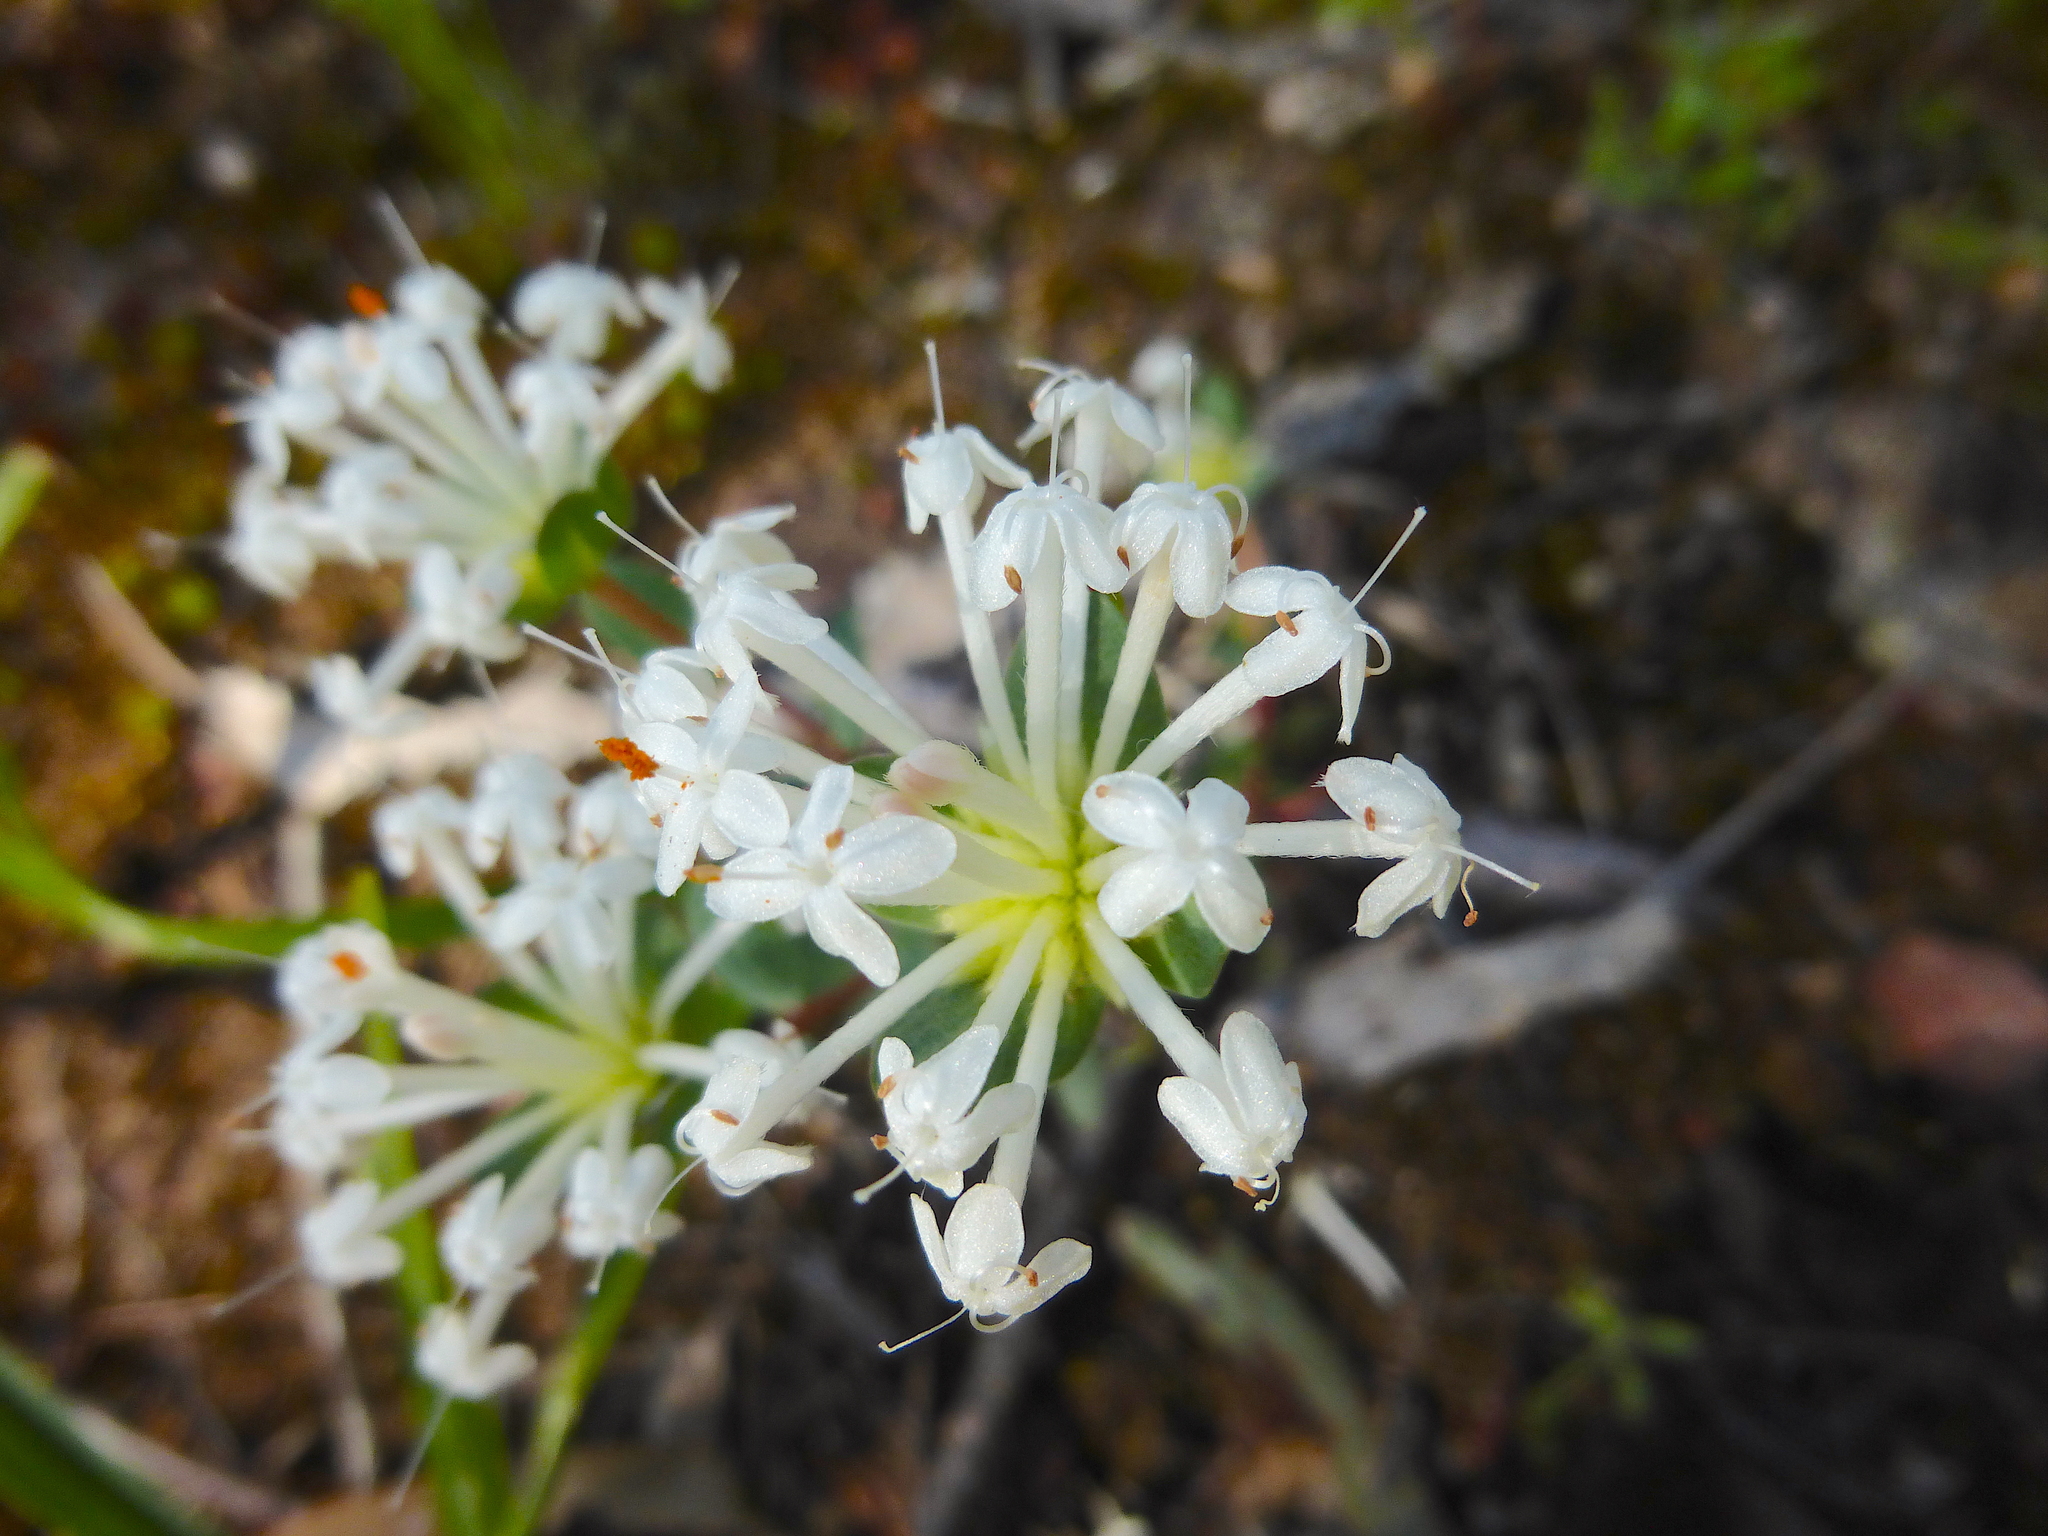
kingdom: Plantae
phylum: Tracheophyta
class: Magnoliopsida
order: Malvales
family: Thymelaeaceae
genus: Pimelea
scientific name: Pimelea linifolia
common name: Queen-of-the-bush
